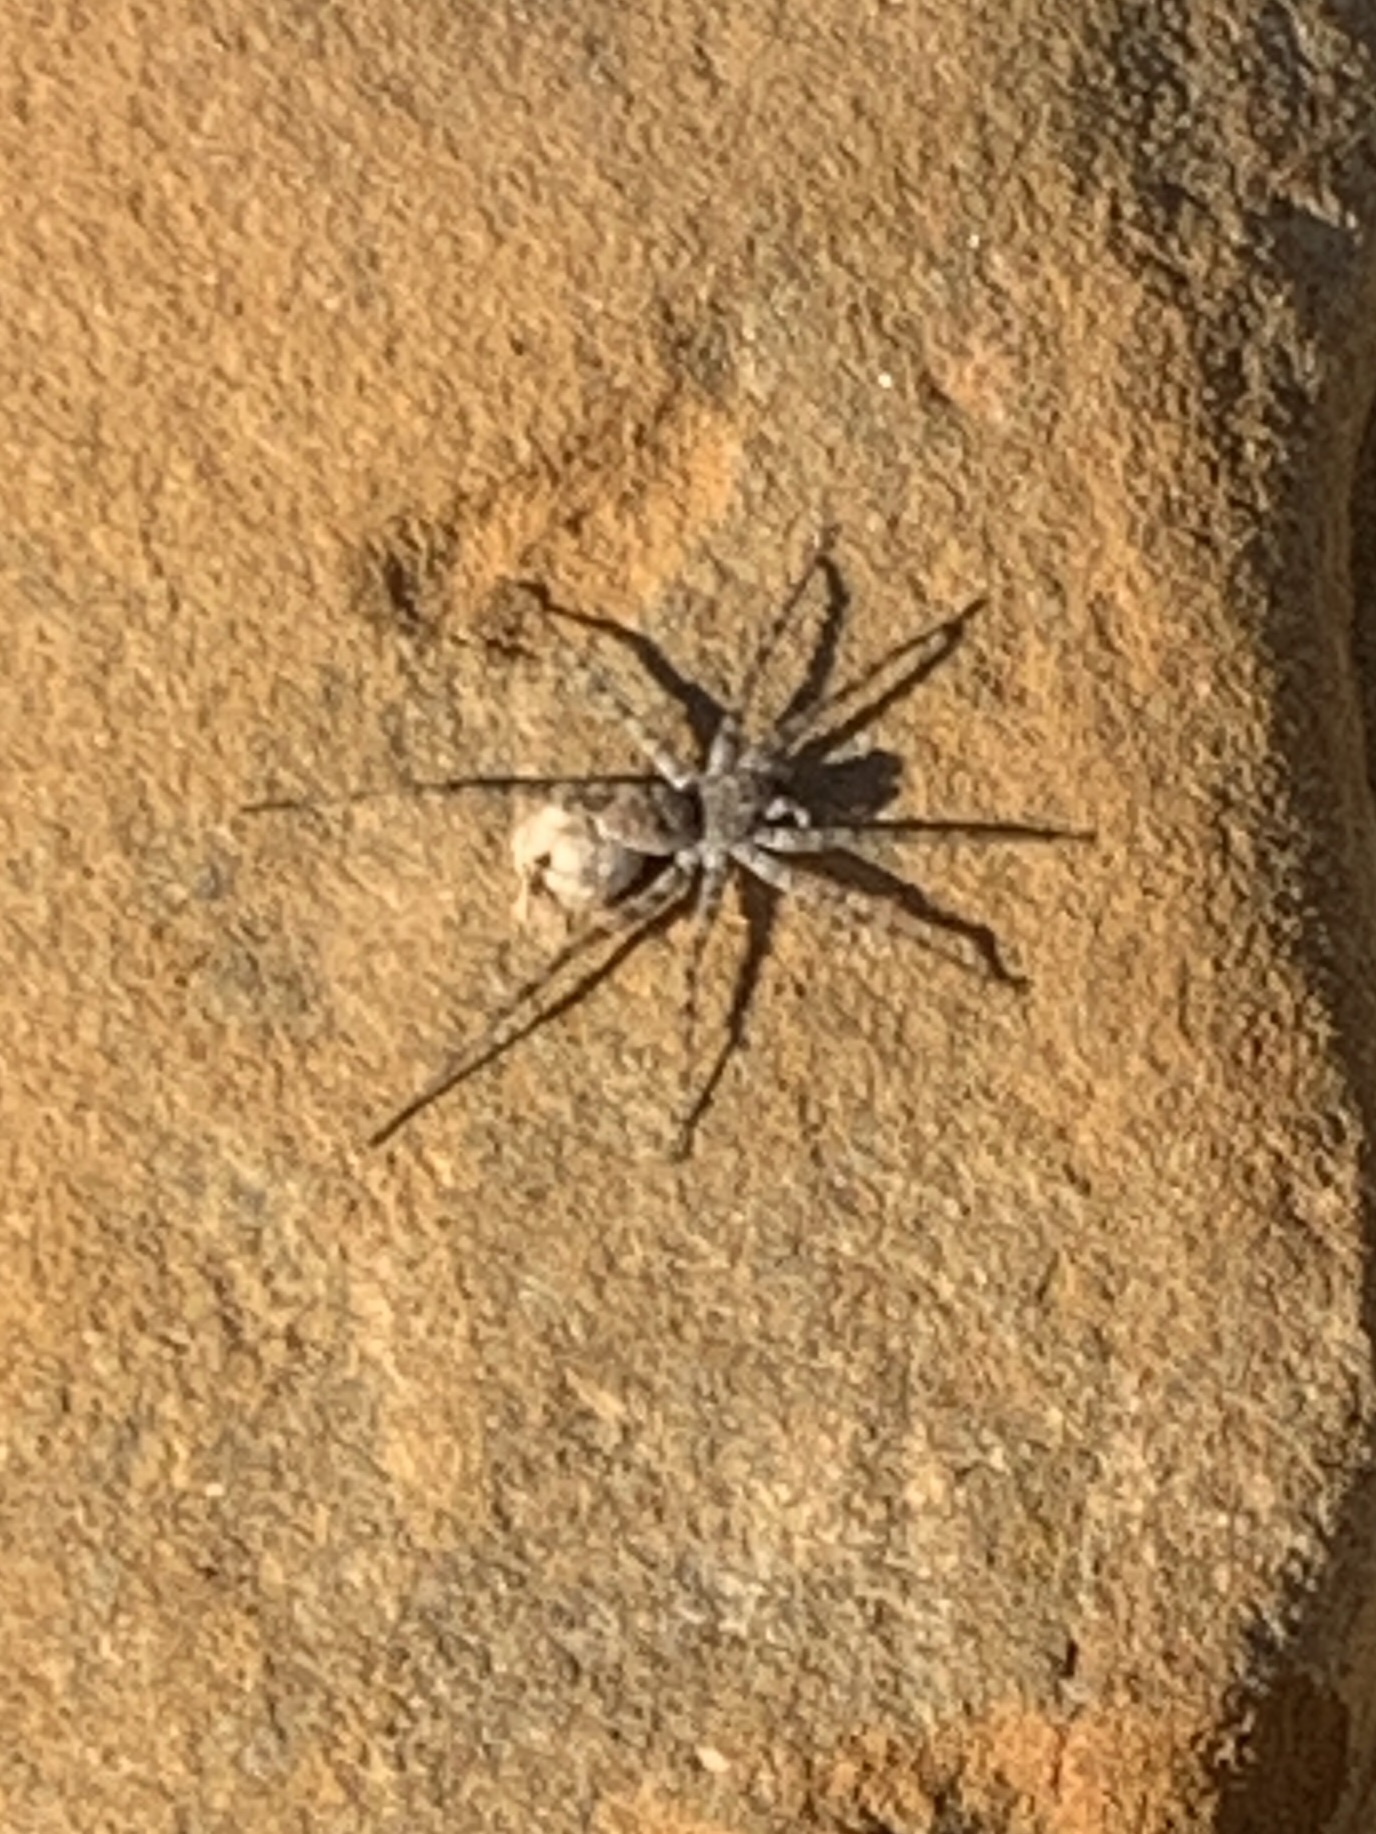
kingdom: Animalia
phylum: Arthropoda
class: Arachnida
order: Araneae
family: Lycosidae
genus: Pardosa
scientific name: Pardosa mercurialis
